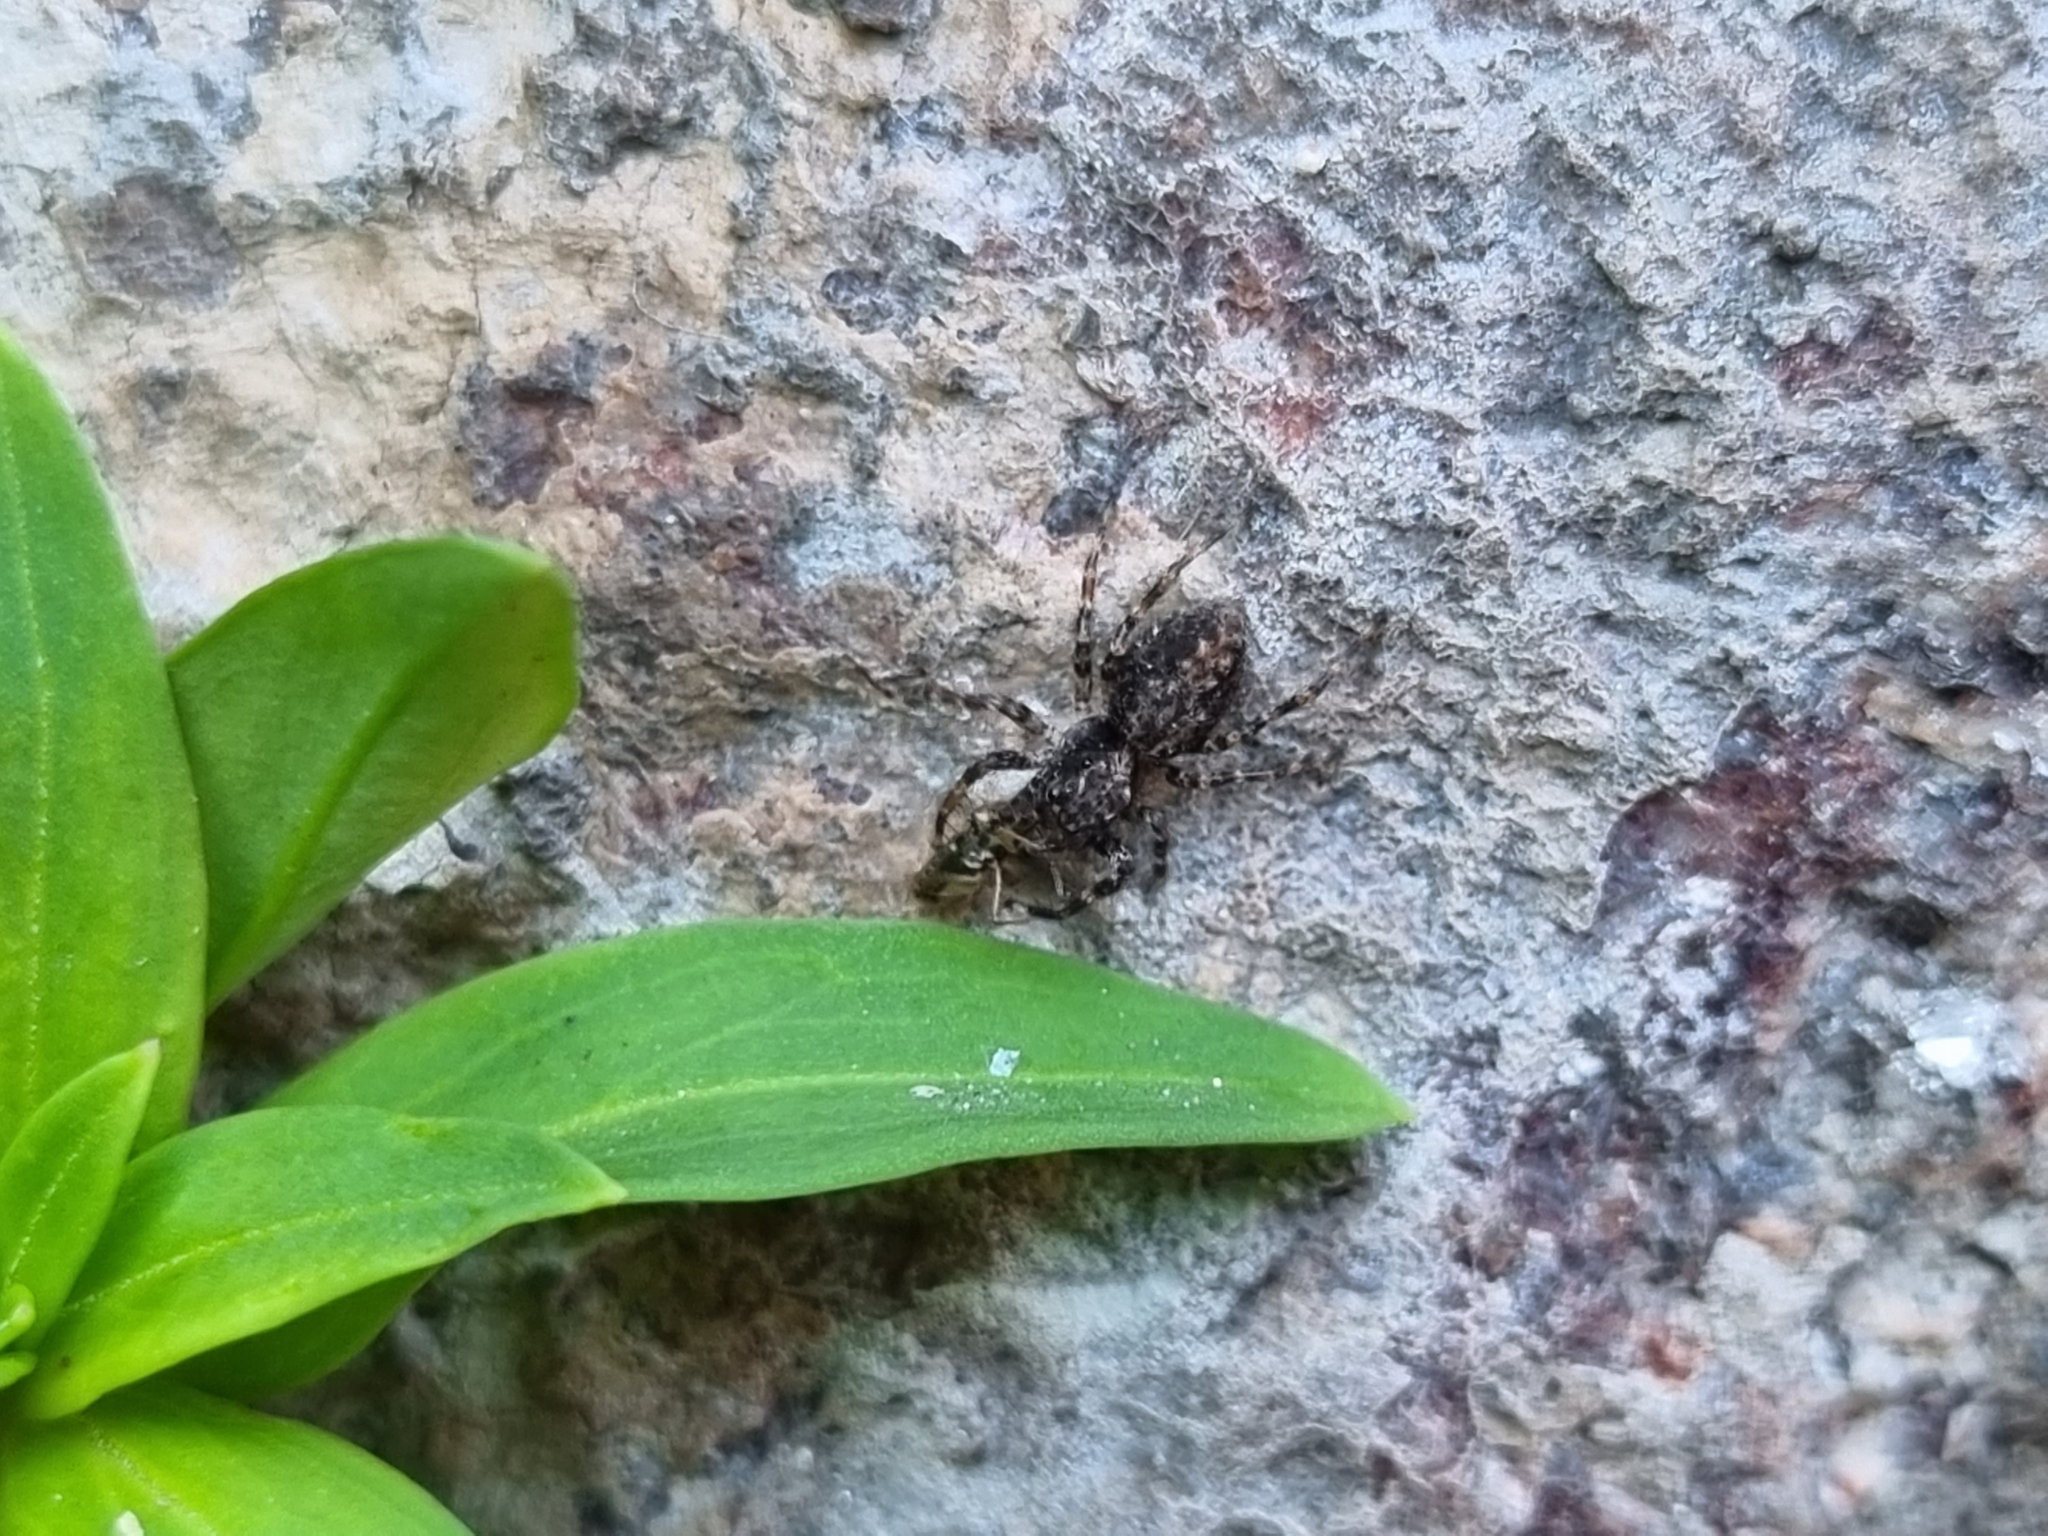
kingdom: Animalia
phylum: Arthropoda
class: Arachnida
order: Araneae
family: Salticidae
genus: Titanattus
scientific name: Titanattus andinus
